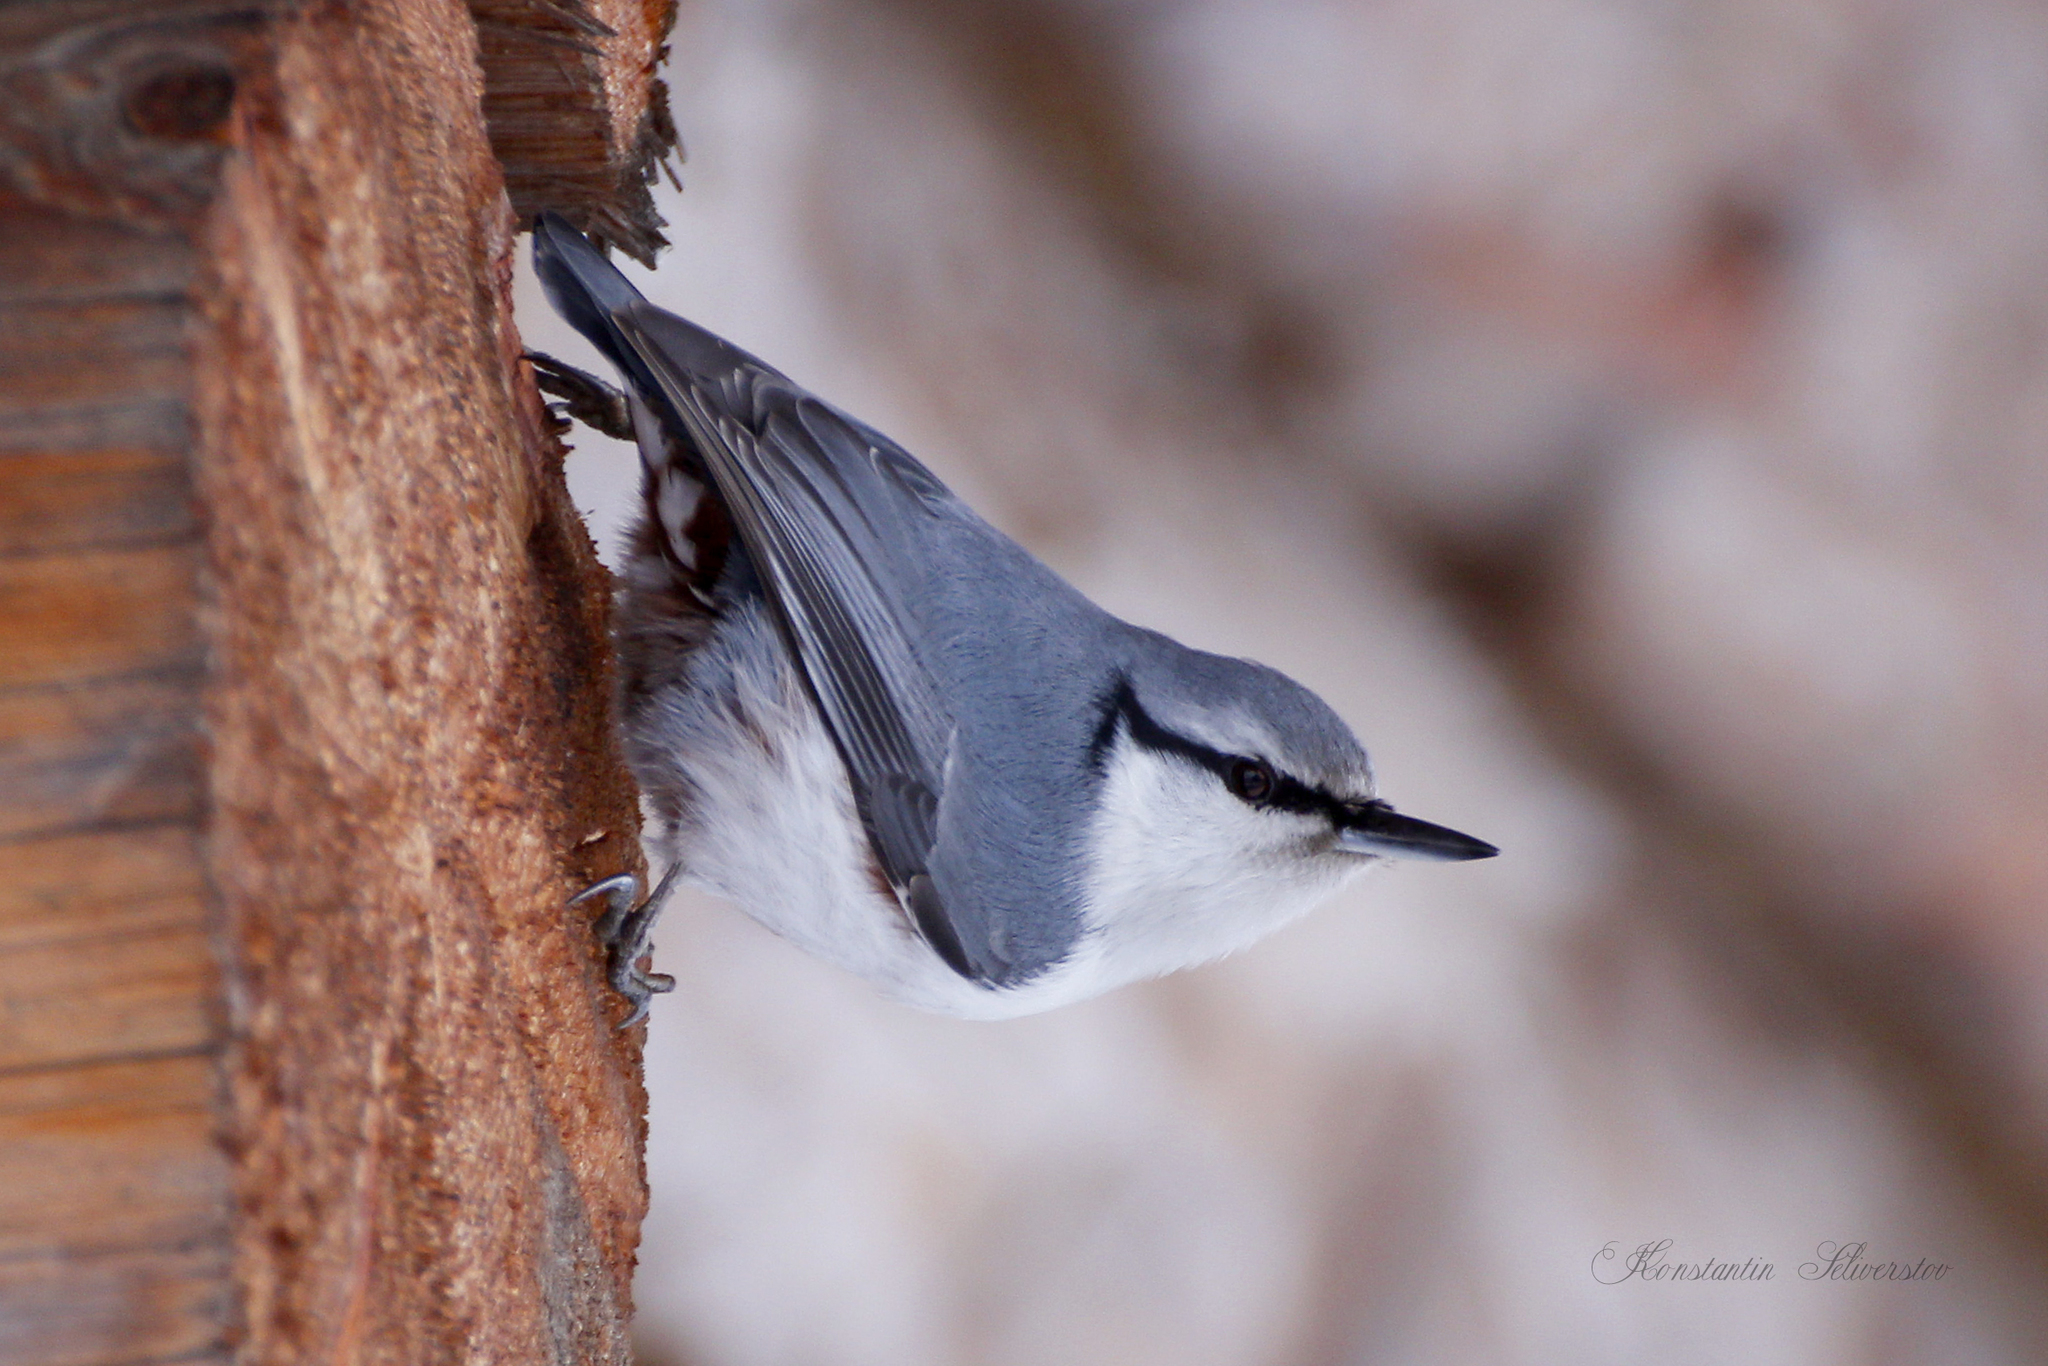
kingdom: Animalia
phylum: Chordata
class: Aves
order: Passeriformes
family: Sittidae
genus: Sitta
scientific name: Sitta europaea
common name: Eurasian nuthatch
